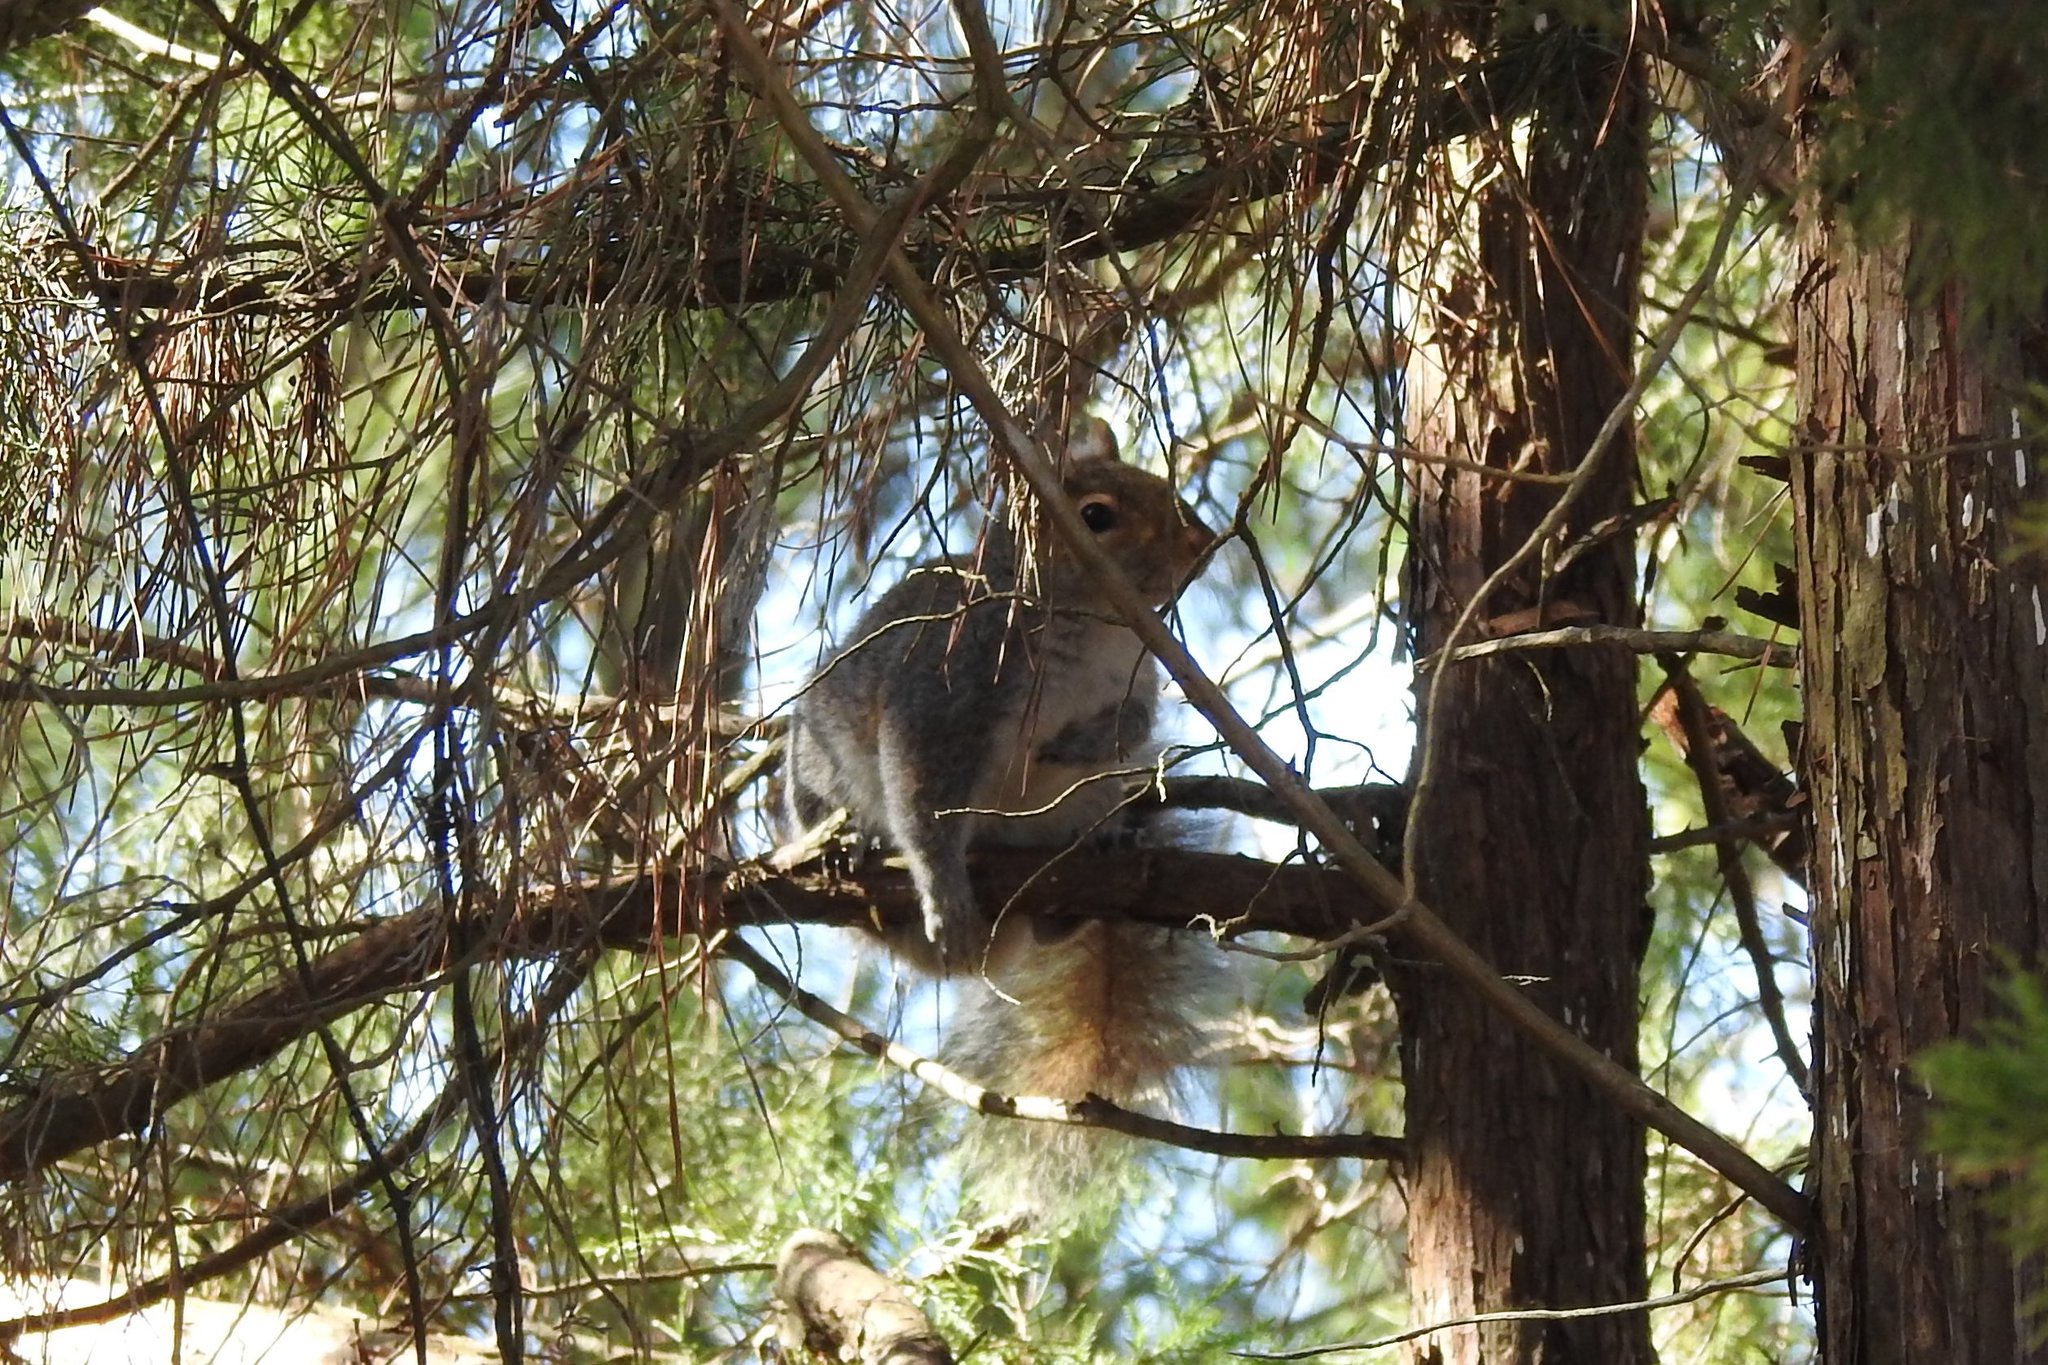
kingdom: Animalia
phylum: Chordata
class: Mammalia
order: Rodentia
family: Sciuridae
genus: Sciurus
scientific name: Sciurus carolinensis
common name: Eastern gray squirrel
